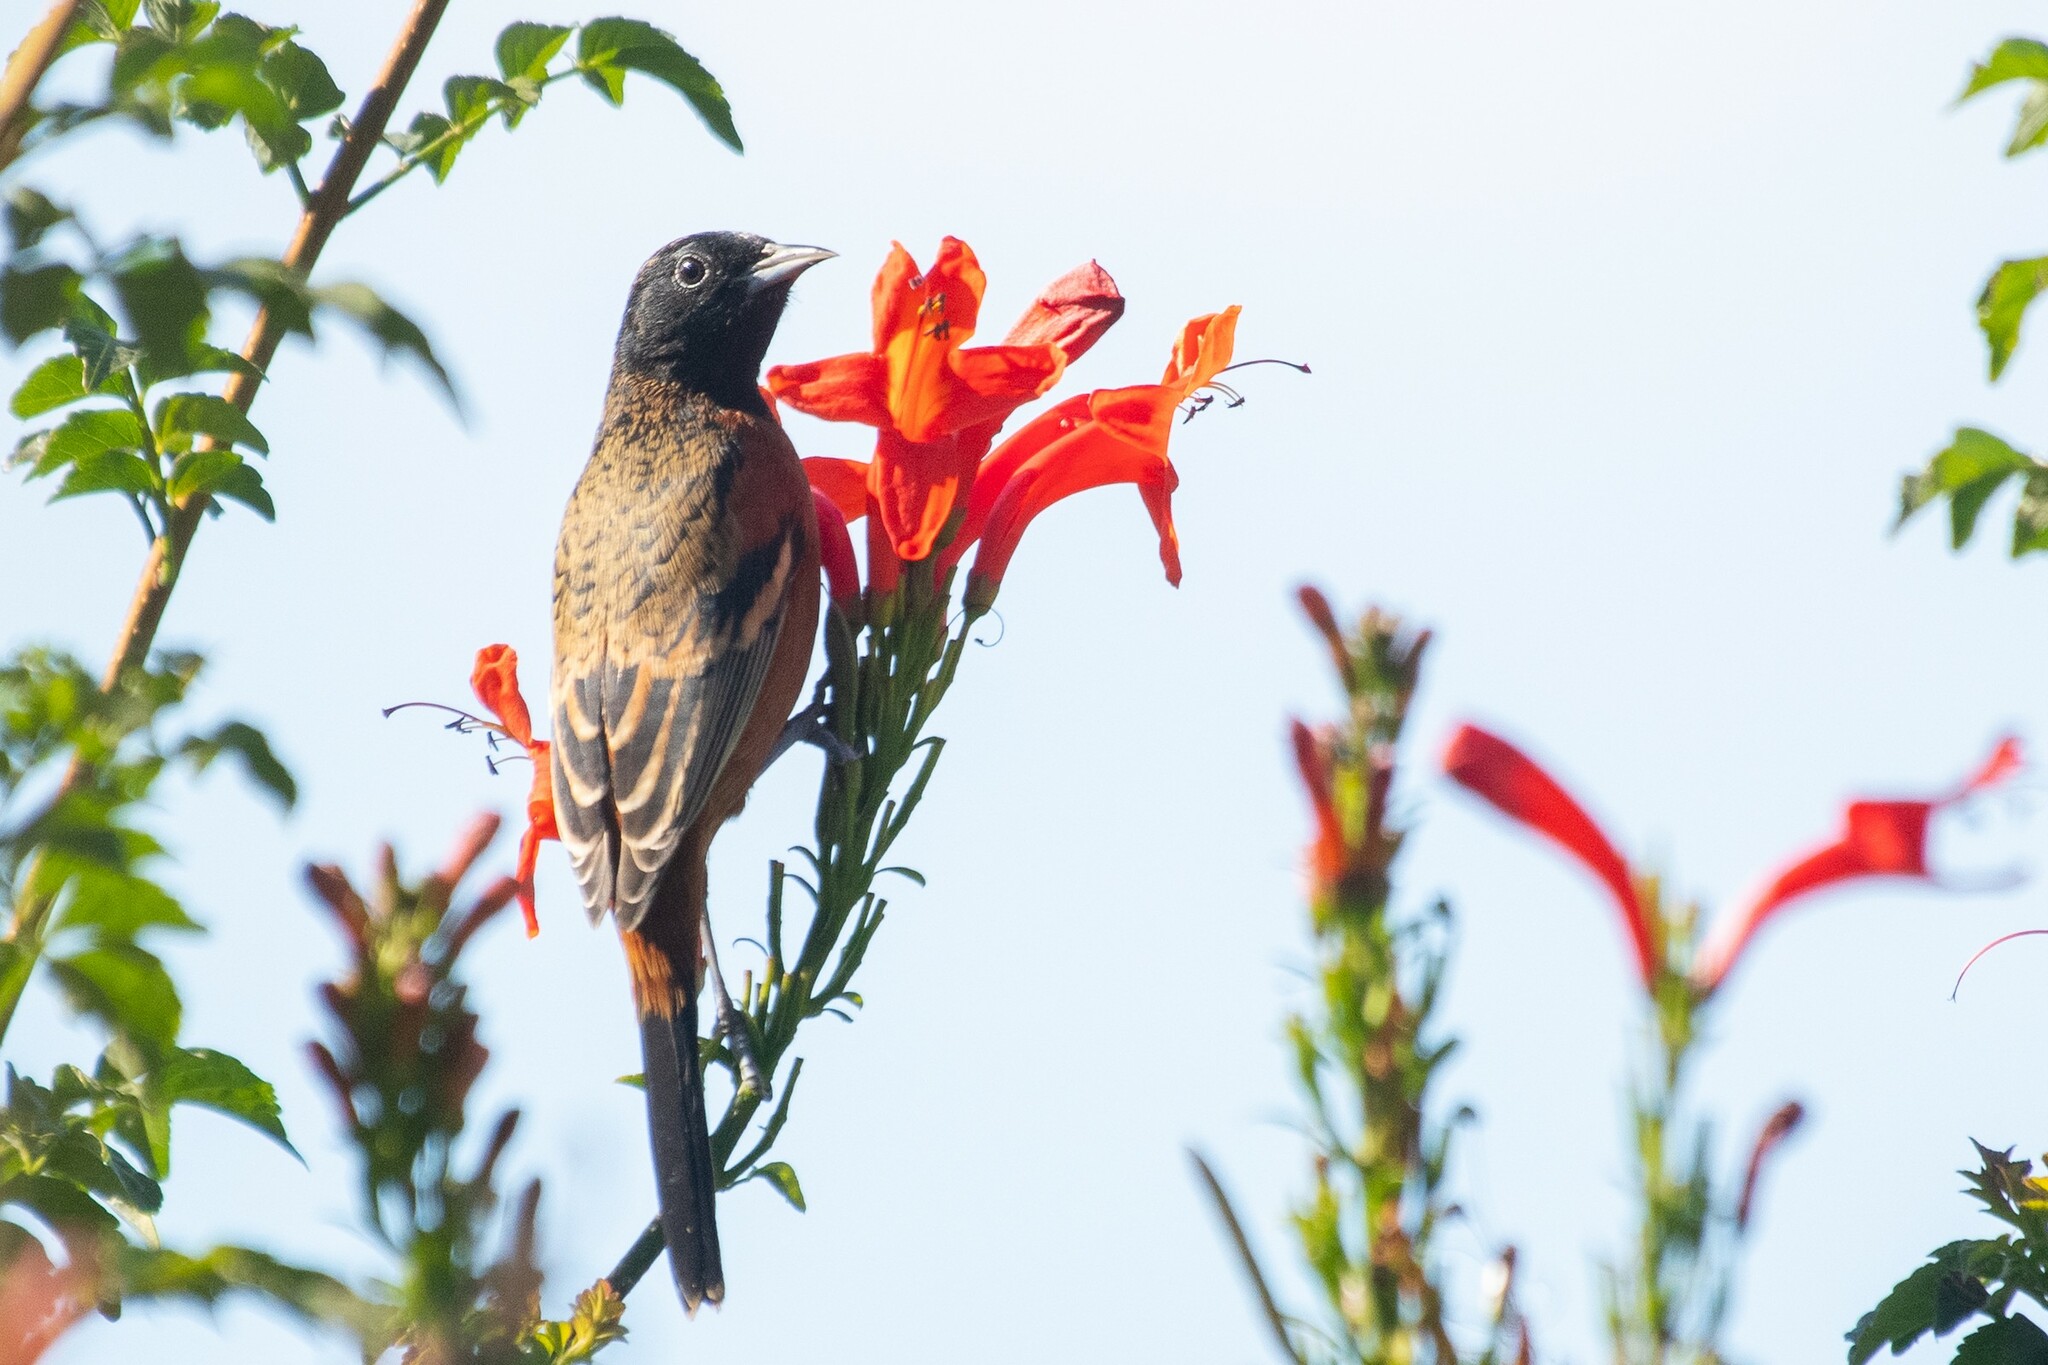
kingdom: Animalia
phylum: Chordata
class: Aves
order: Passeriformes
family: Icteridae
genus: Icterus
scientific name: Icterus spurius
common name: Orchard oriole
